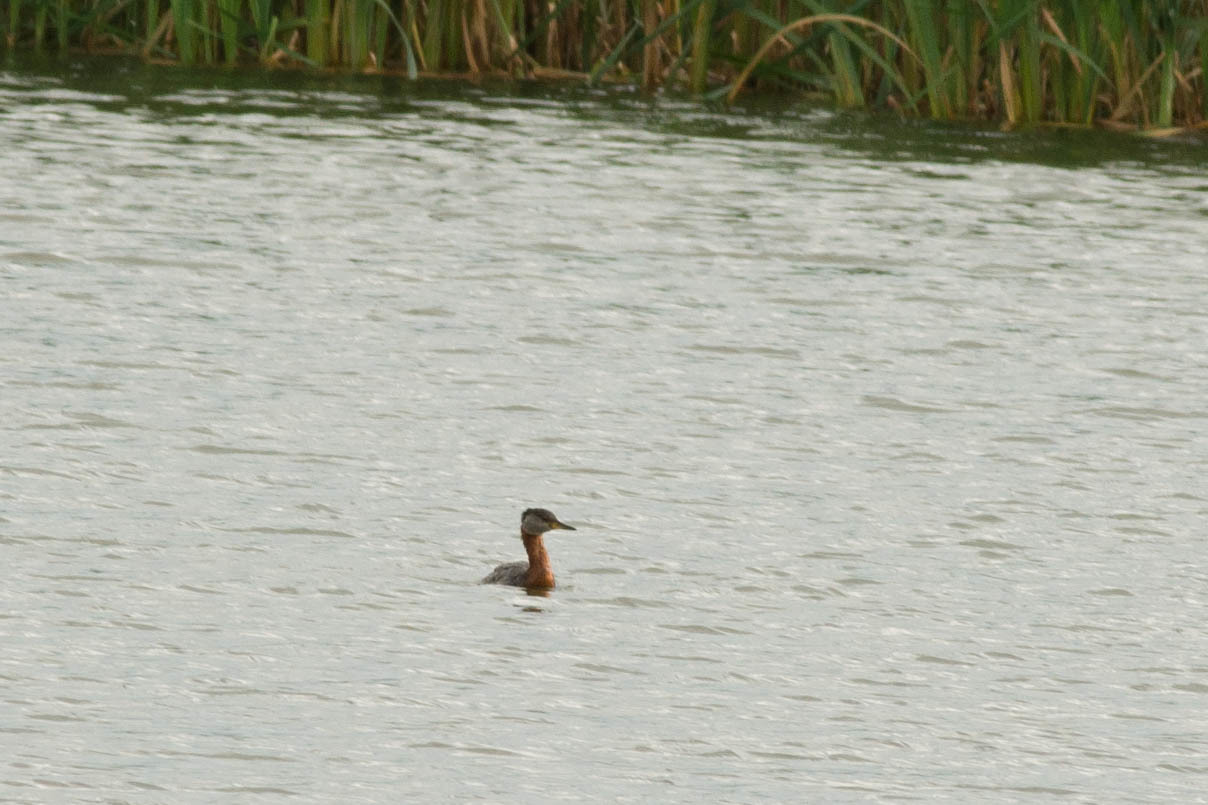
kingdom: Animalia
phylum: Chordata
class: Aves
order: Podicipediformes
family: Podicipedidae
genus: Podiceps
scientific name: Podiceps grisegena
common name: Red-necked grebe
